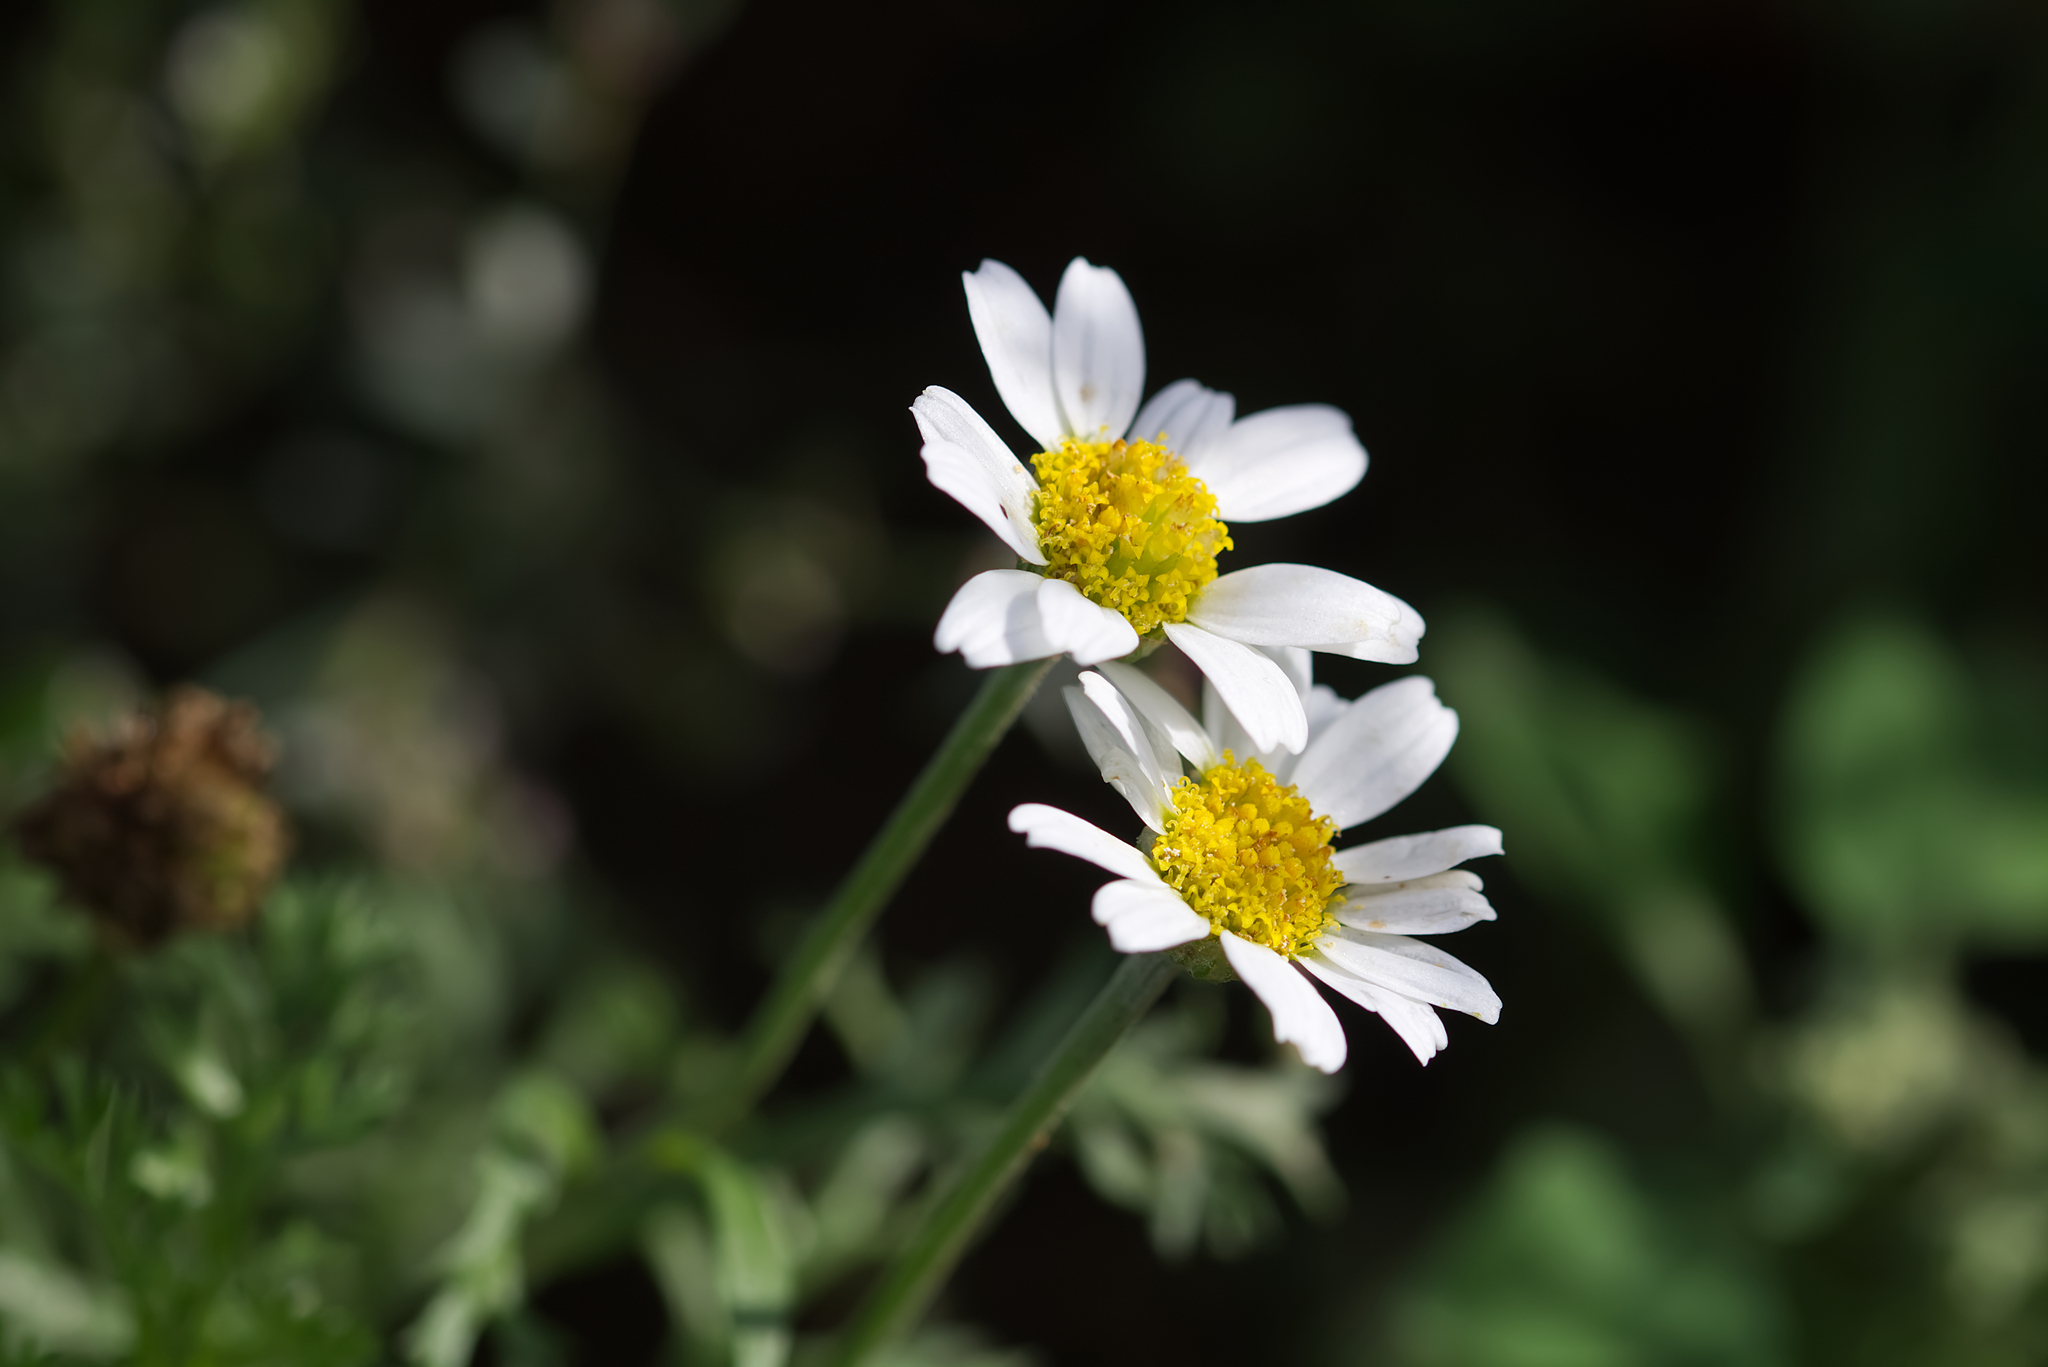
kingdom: Plantae
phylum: Tracheophyta
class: Magnoliopsida
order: Asterales
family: Asteraceae
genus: Anthemis
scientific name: Anthemis arvensis
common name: Corn chamomile
